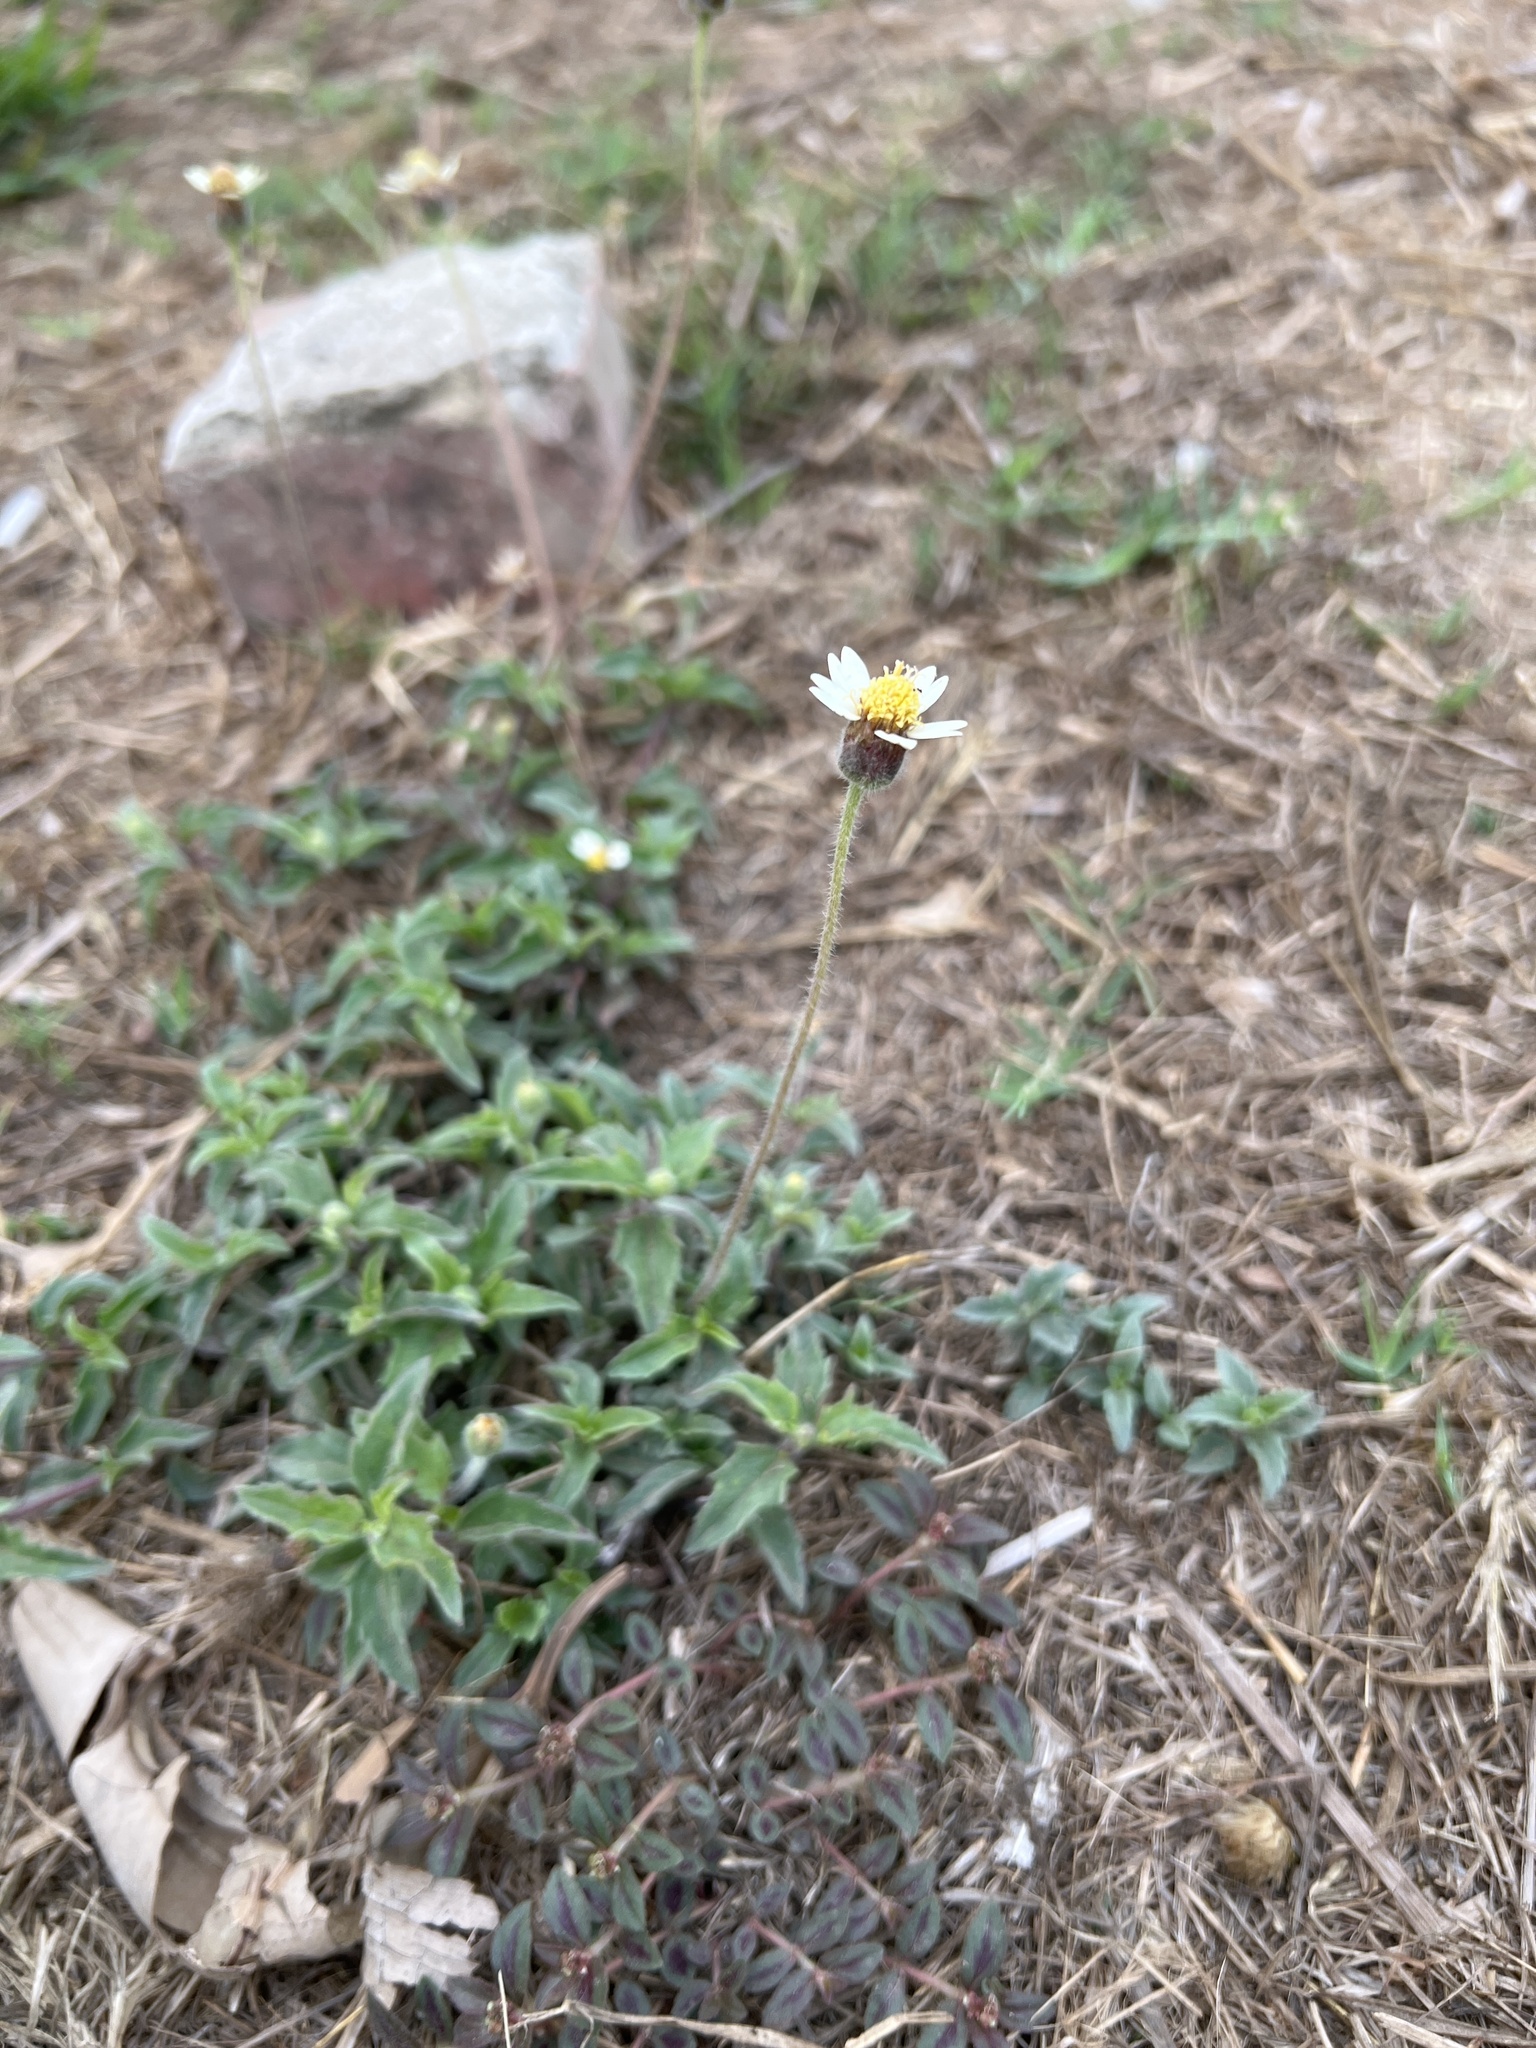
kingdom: Plantae
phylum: Tracheophyta
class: Magnoliopsida
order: Asterales
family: Asteraceae
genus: Tridax
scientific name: Tridax procumbens
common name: Coatbuttons
